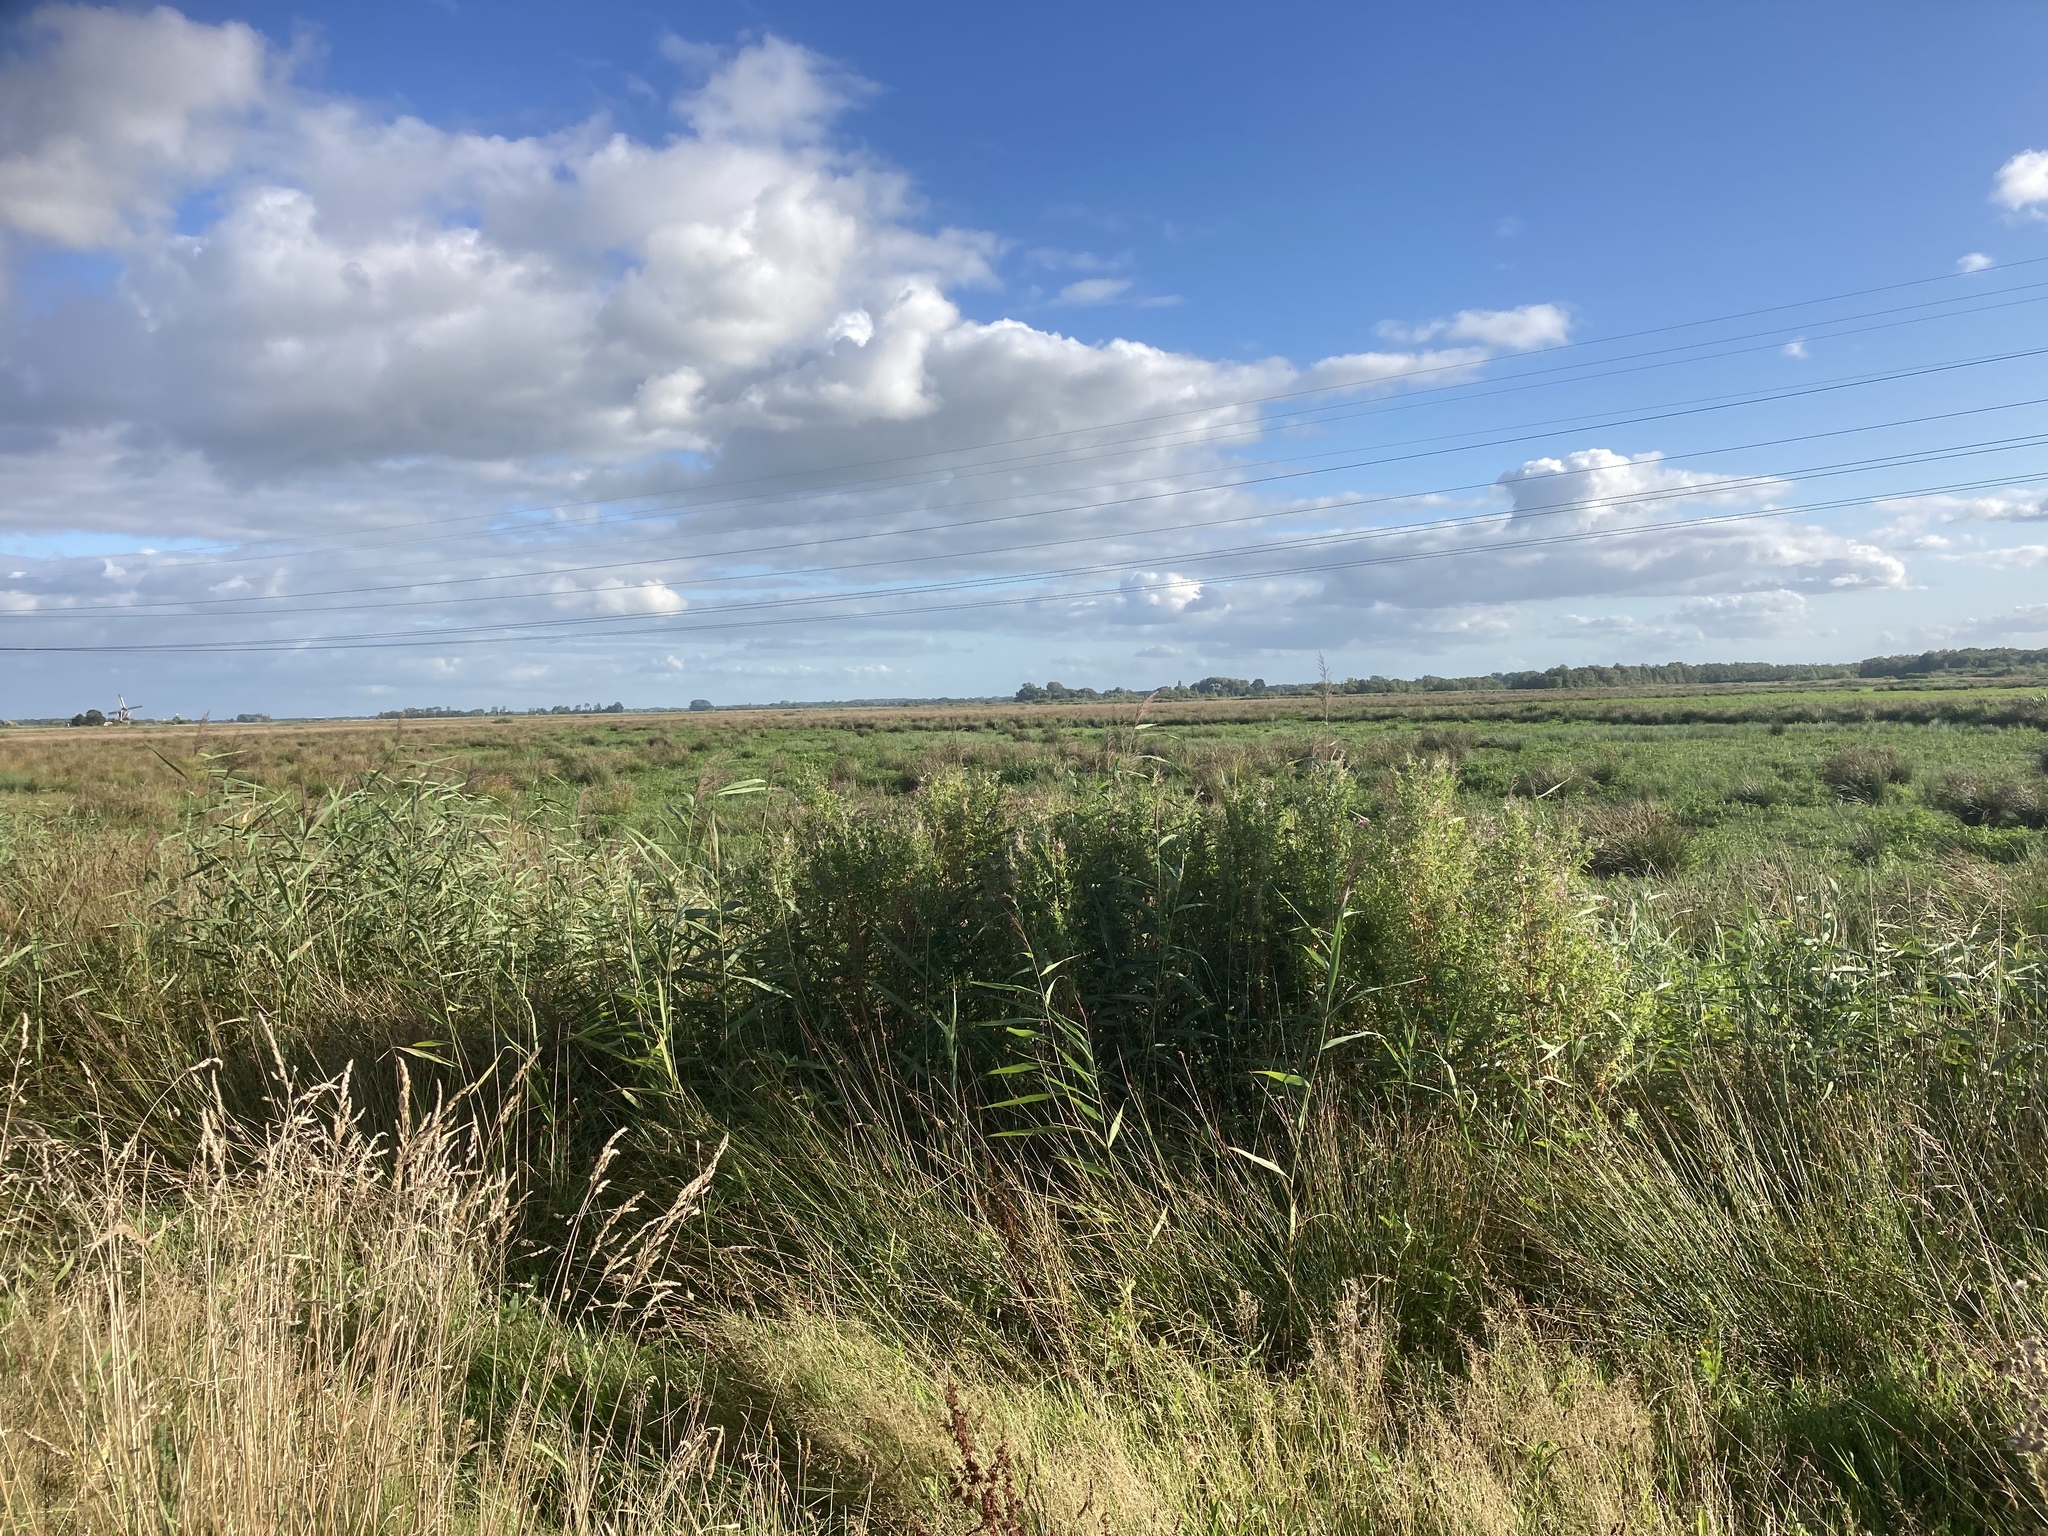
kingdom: Plantae
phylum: Tracheophyta
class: Liliopsida
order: Poales
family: Juncaceae
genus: Juncus
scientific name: Juncus effusus
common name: Soft rush
